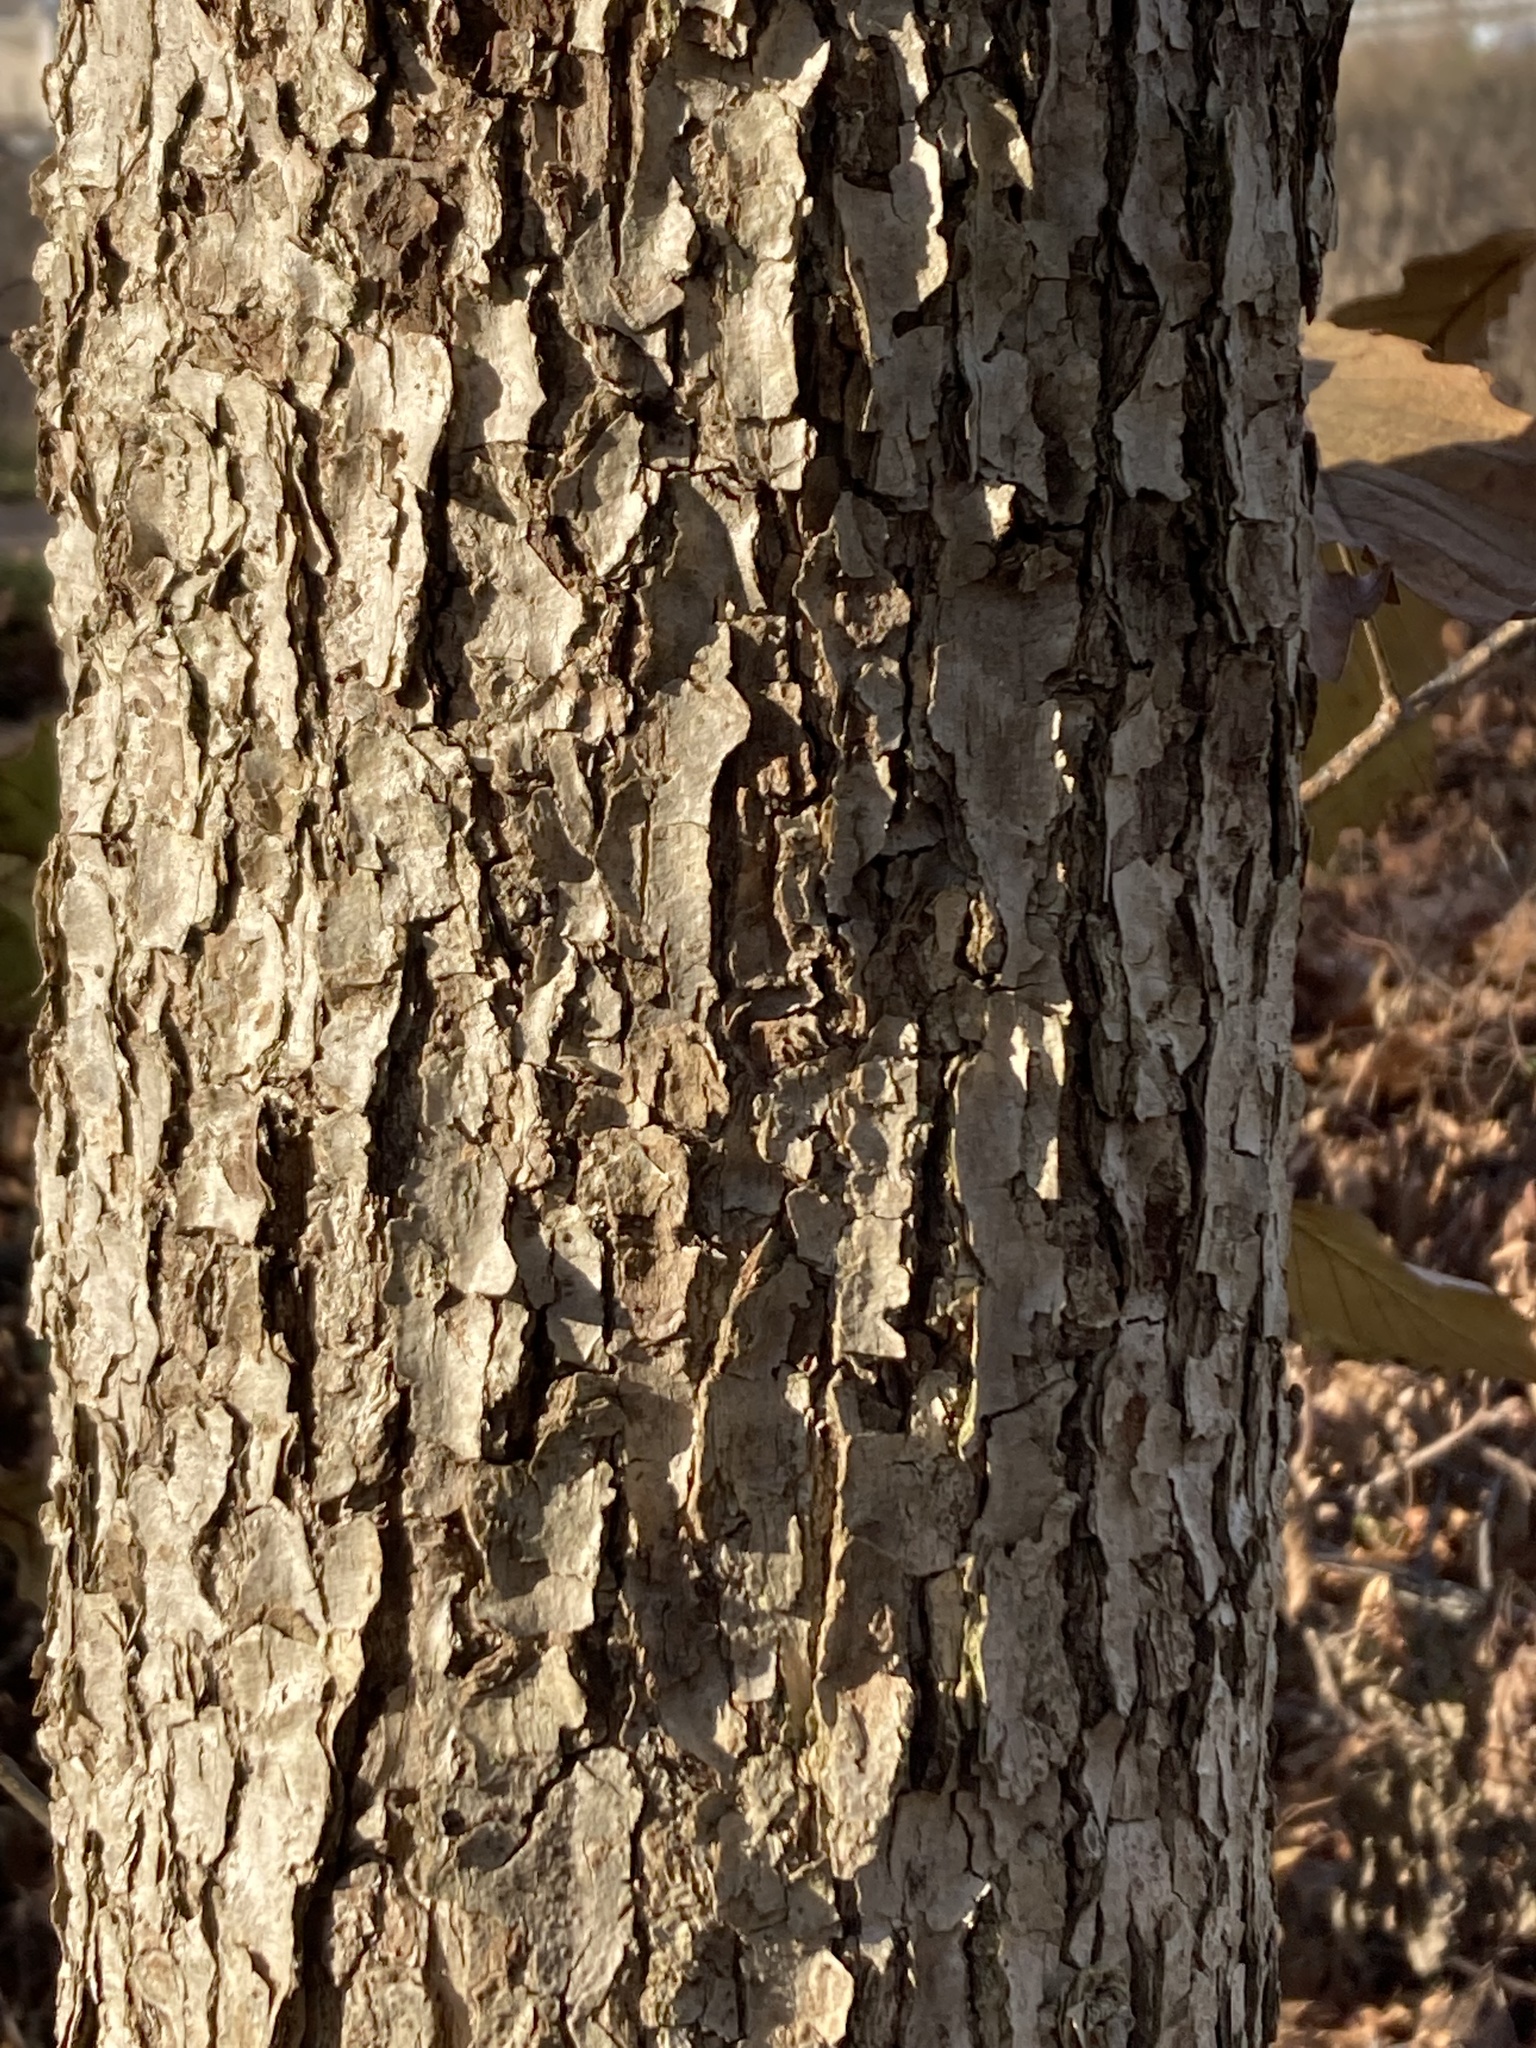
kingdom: Plantae
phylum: Tracheophyta
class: Magnoliopsida
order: Fagales
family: Fagaceae
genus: Quercus
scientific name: Quercus muehlenbergii
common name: Chinkapin oak
